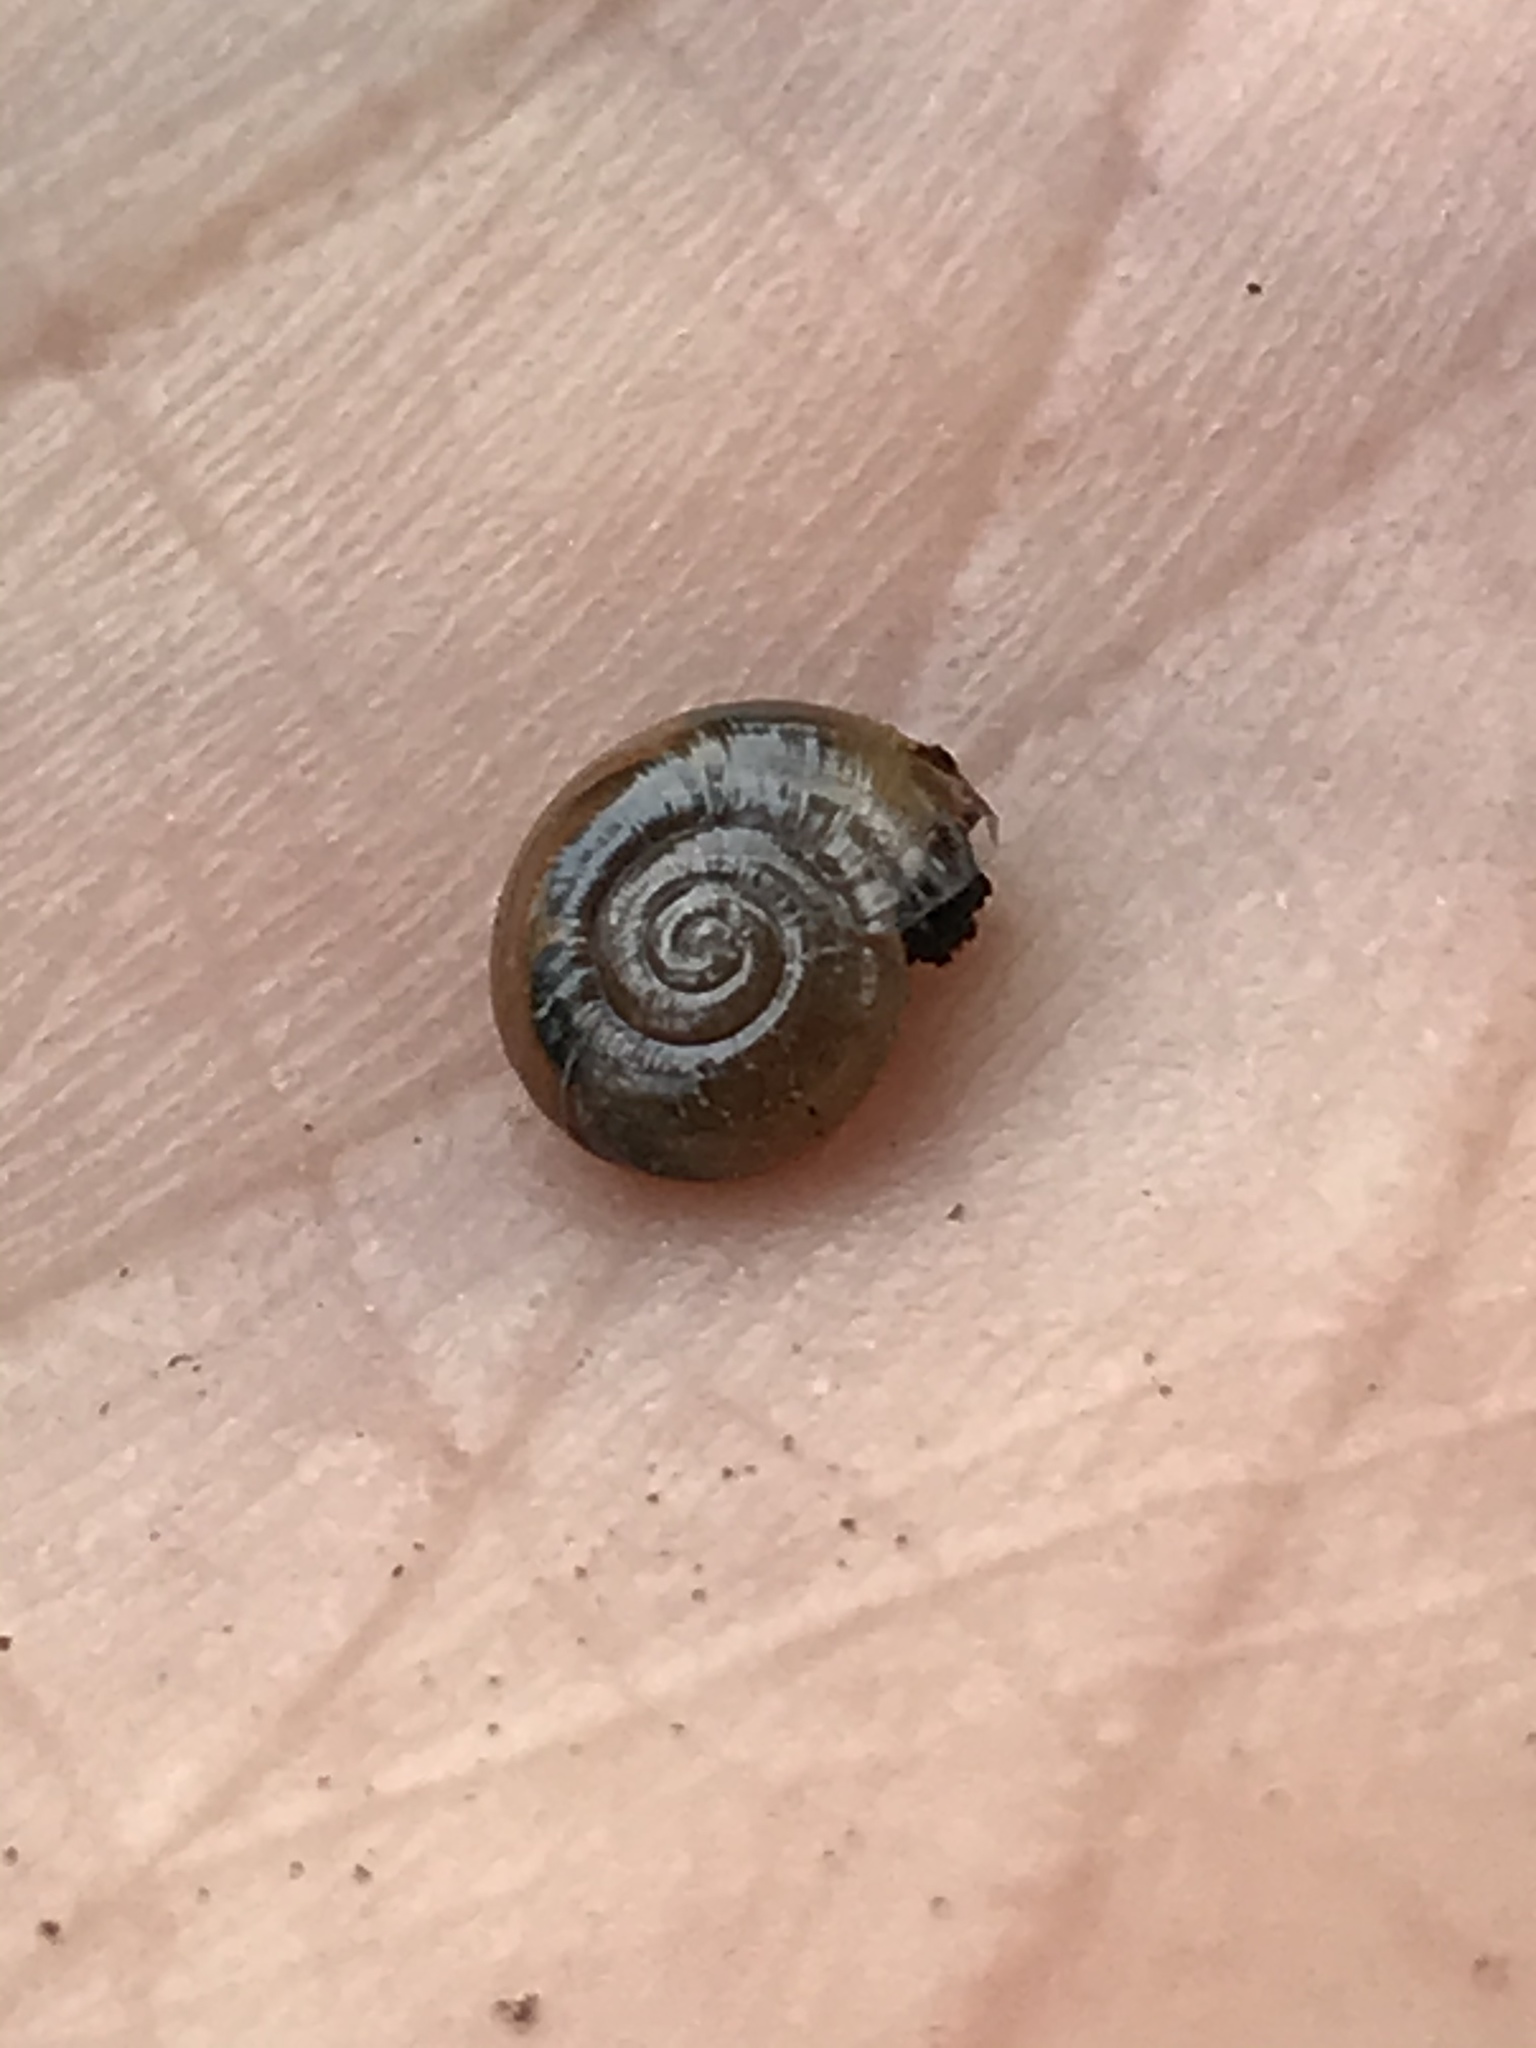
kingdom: Animalia
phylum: Mollusca
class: Gastropoda
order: Stylommatophora
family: Oxychilidae
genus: Oxychilus
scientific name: Oxychilus draparnaudi
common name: Draparnaud's glass snail
